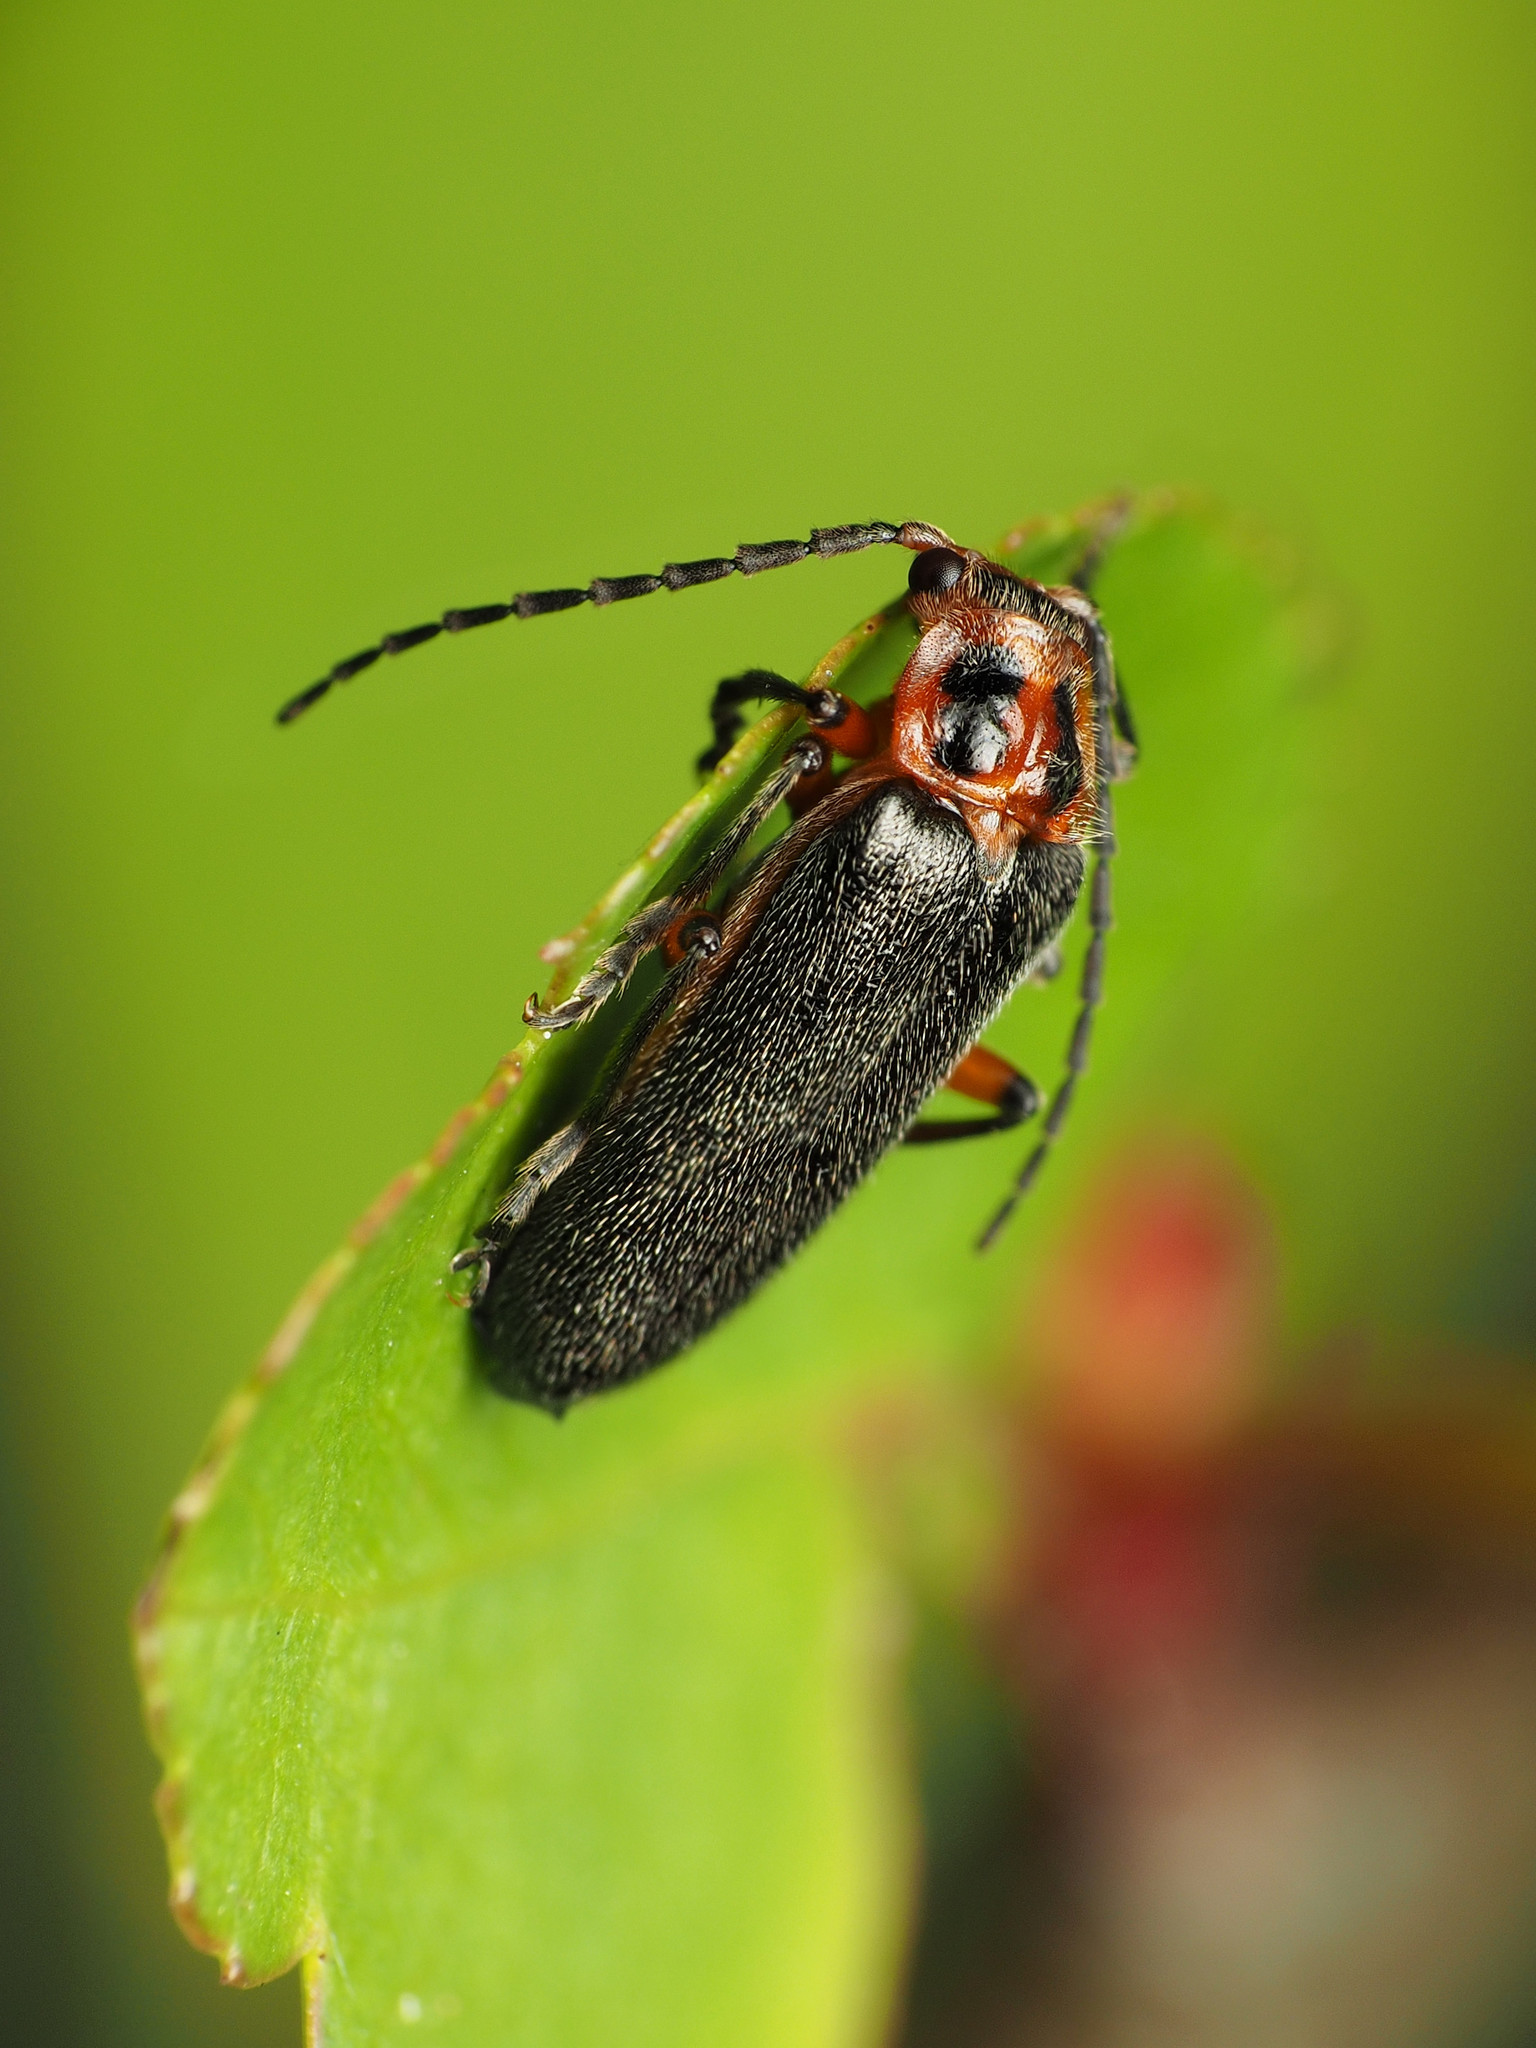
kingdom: Animalia
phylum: Arthropoda
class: Insecta
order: Coleoptera
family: Cantharidae
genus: Atalantycha
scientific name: Atalantycha bilineata
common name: Two-lined leatherwing
